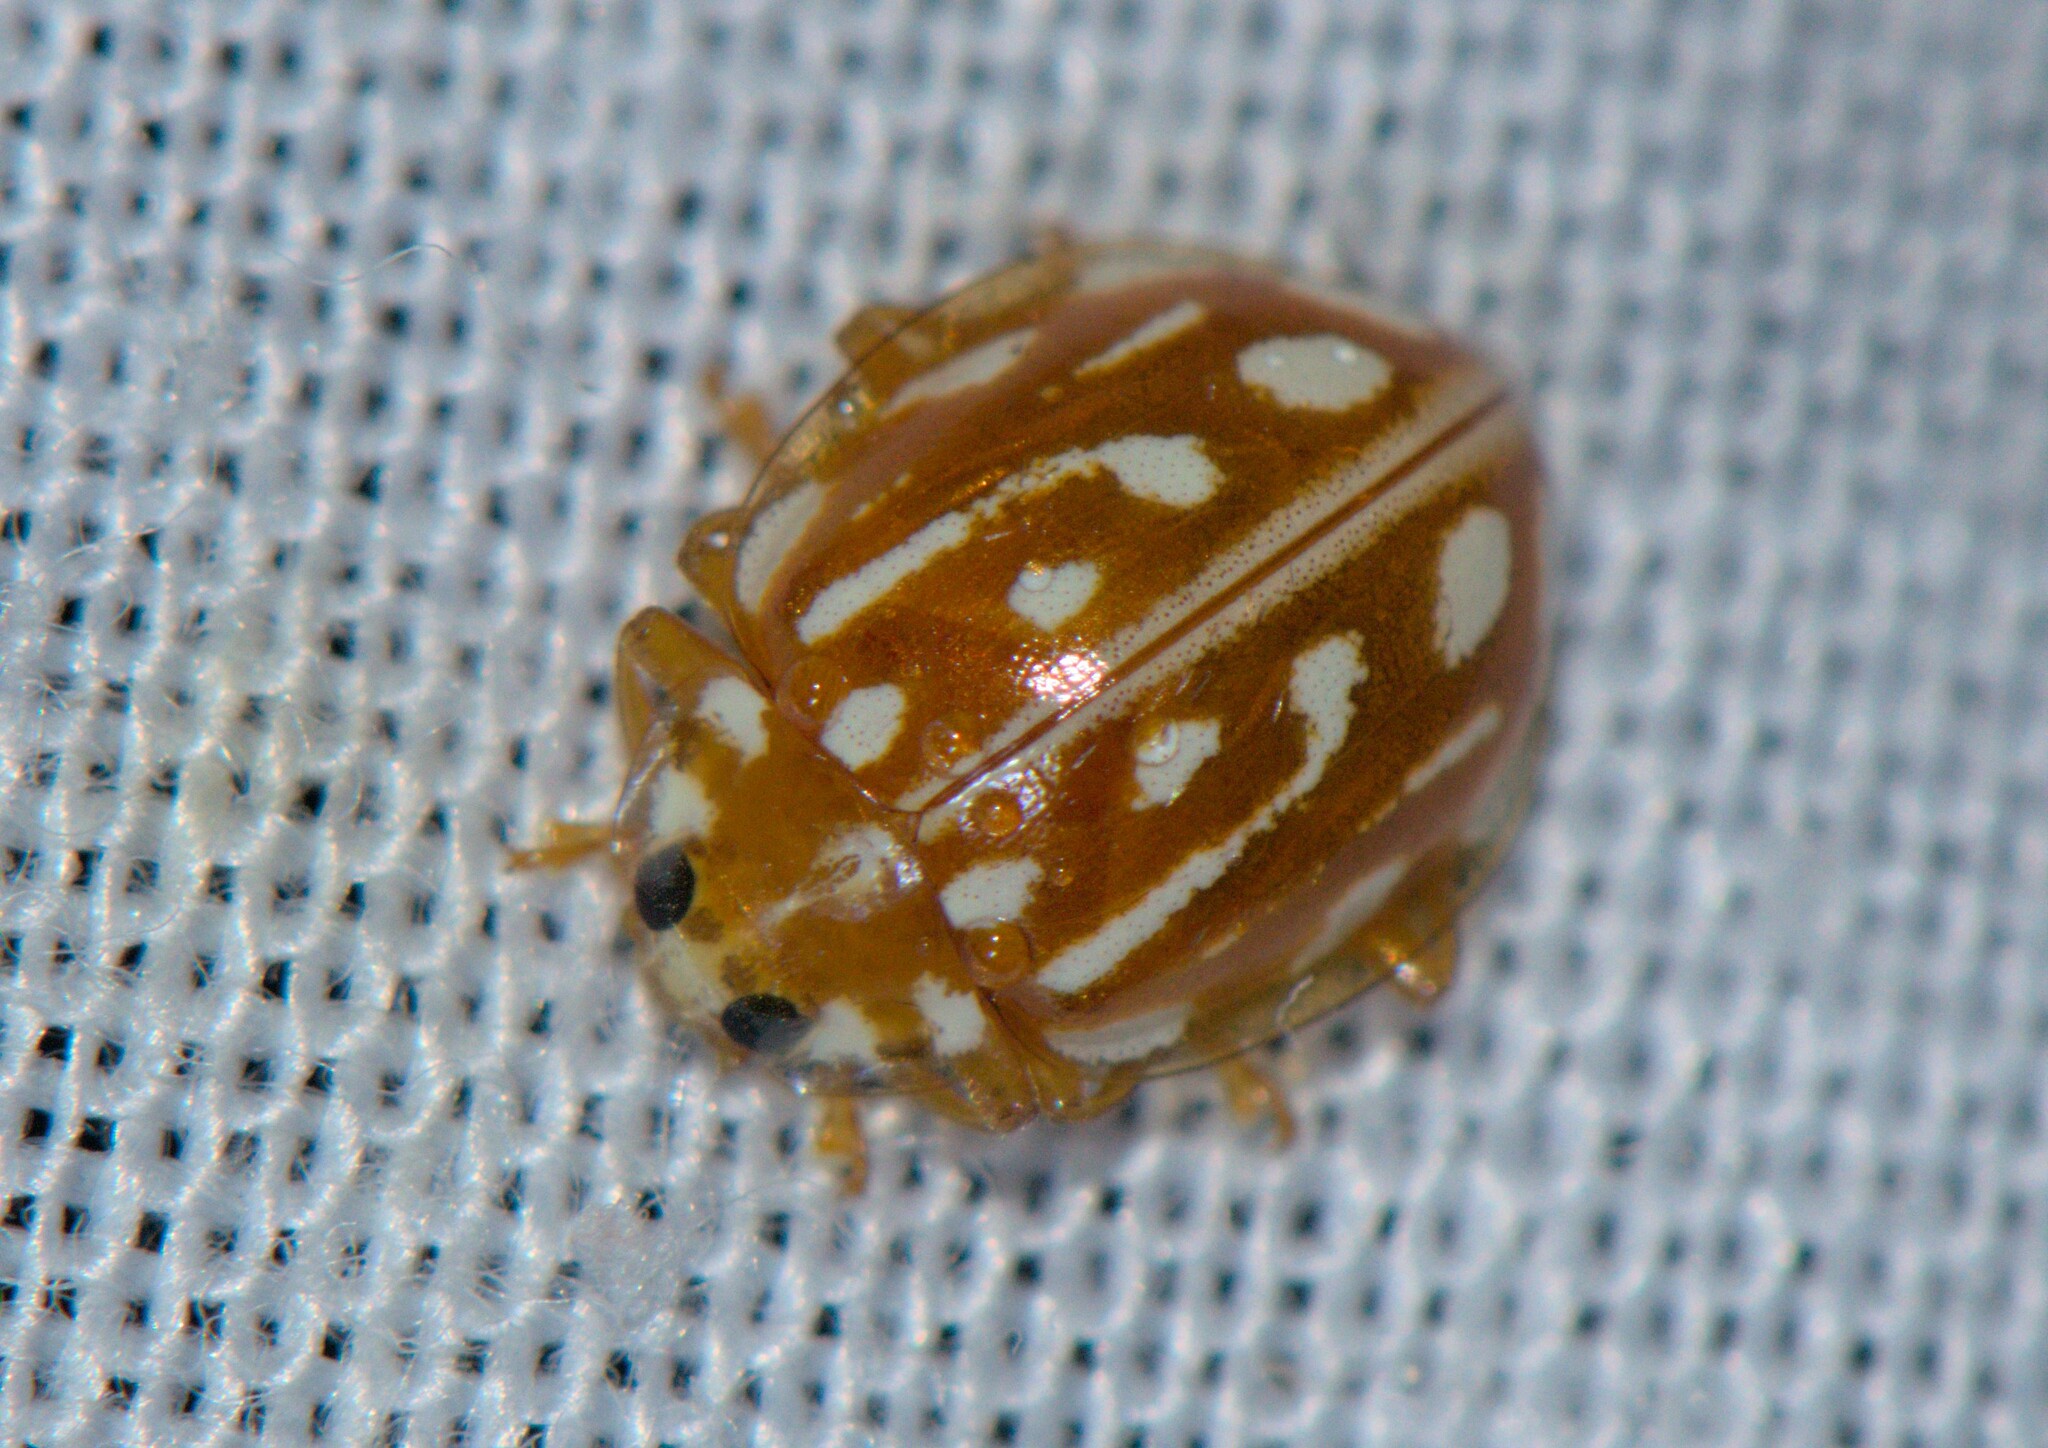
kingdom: Animalia
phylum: Arthropoda
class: Insecta
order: Coleoptera
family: Coccinellidae
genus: Halyzia
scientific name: Halyzia sanscrita
